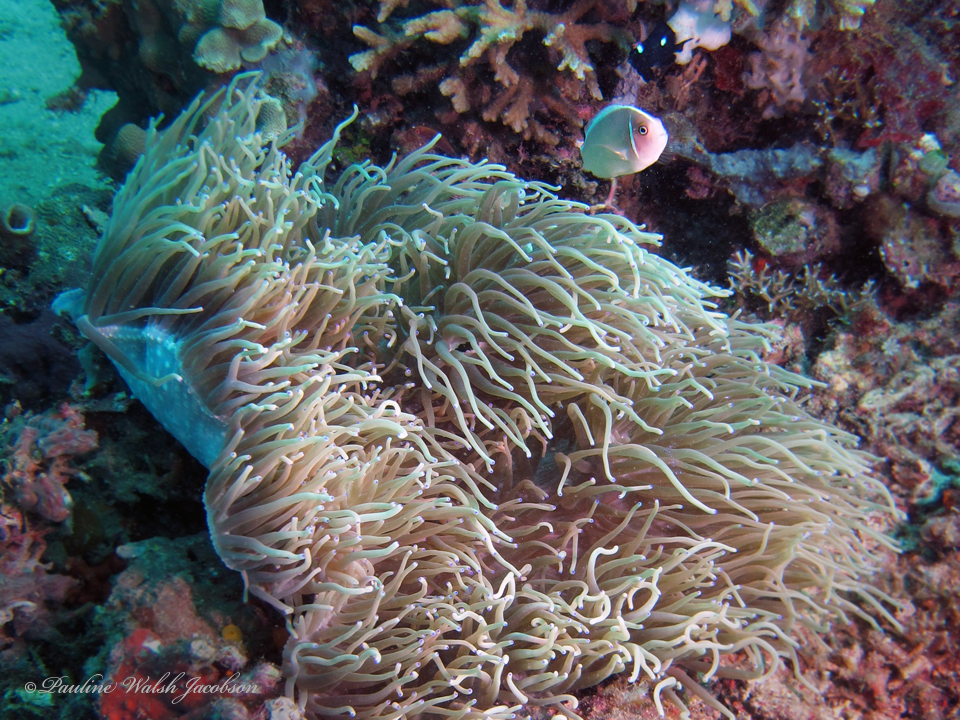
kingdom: Animalia
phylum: Chordata
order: Perciformes
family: Pomacentridae
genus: Amphiprion
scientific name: Amphiprion perideraion
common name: Pink anemonefish
